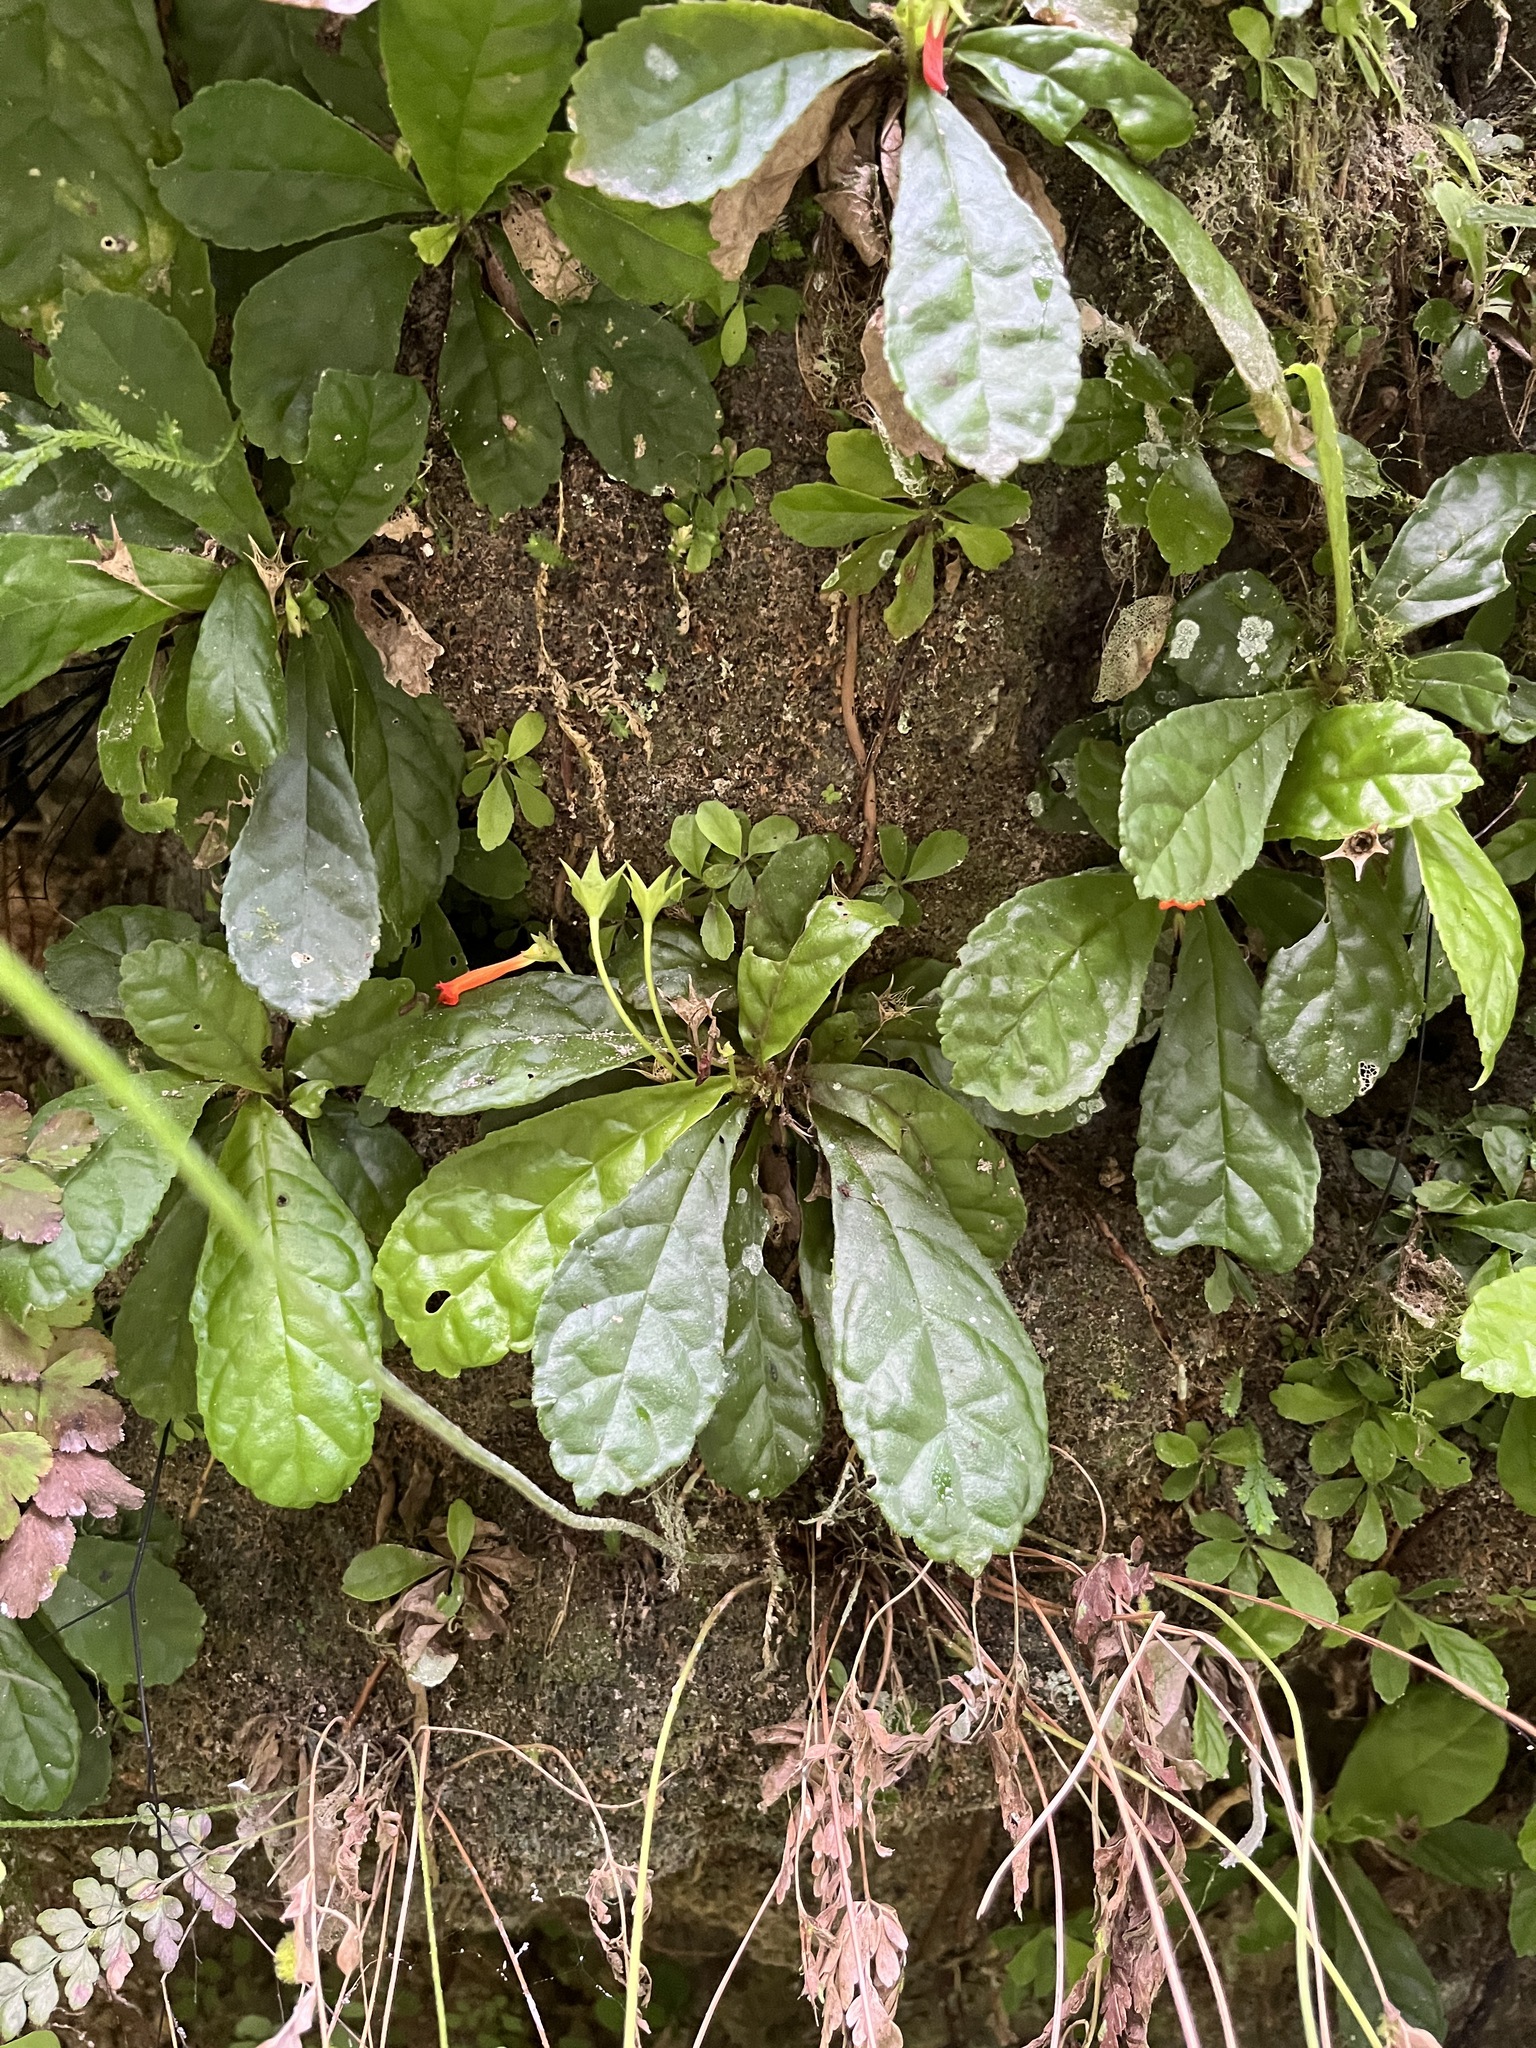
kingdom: Plantae
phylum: Tracheophyta
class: Magnoliopsida
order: Lamiales
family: Gesneriaceae
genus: Gesneria
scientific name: Gesneria cuneifolia
